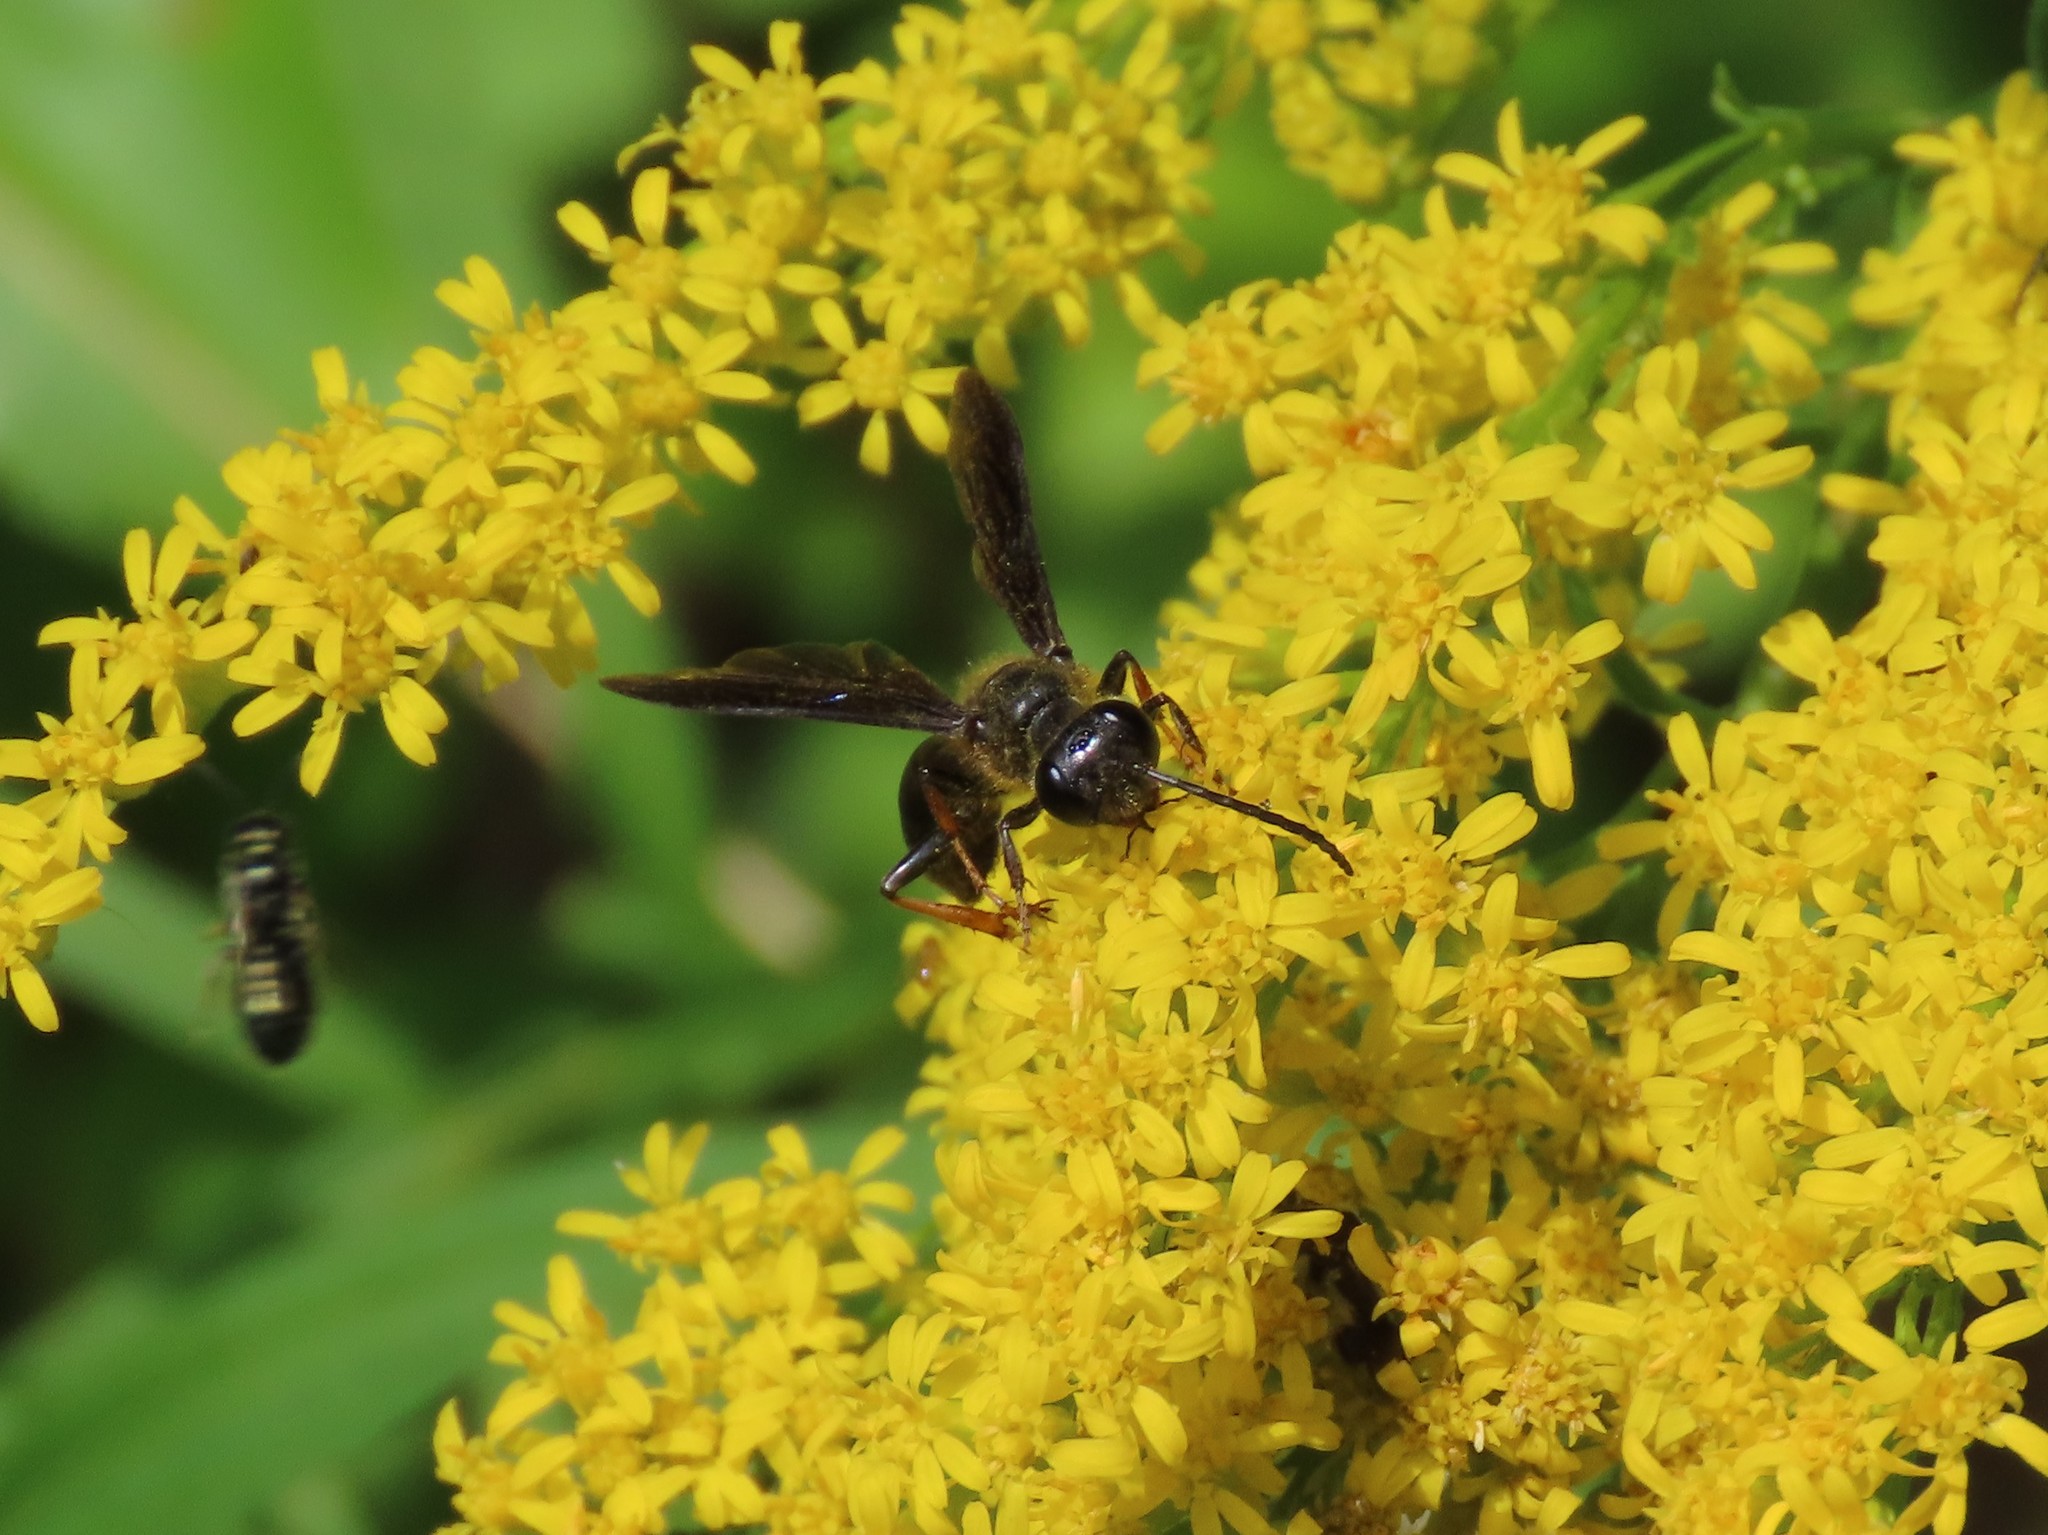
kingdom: Animalia
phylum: Arthropoda
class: Insecta
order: Hymenoptera
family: Sphecidae
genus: Isodontia
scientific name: Isodontia auripes
